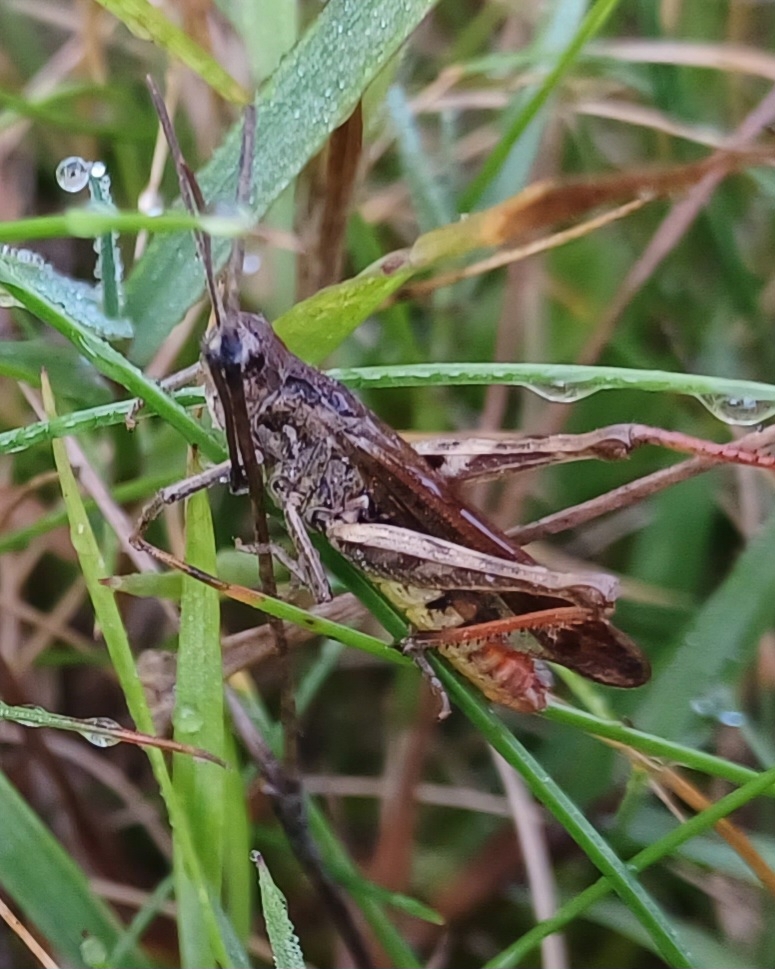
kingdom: Animalia
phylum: Arthropoda
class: Insecta
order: Orthoptera
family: Acrididae
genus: Chorthippus
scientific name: Chorthippus biguttulus
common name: Bow-winged grasshopper
